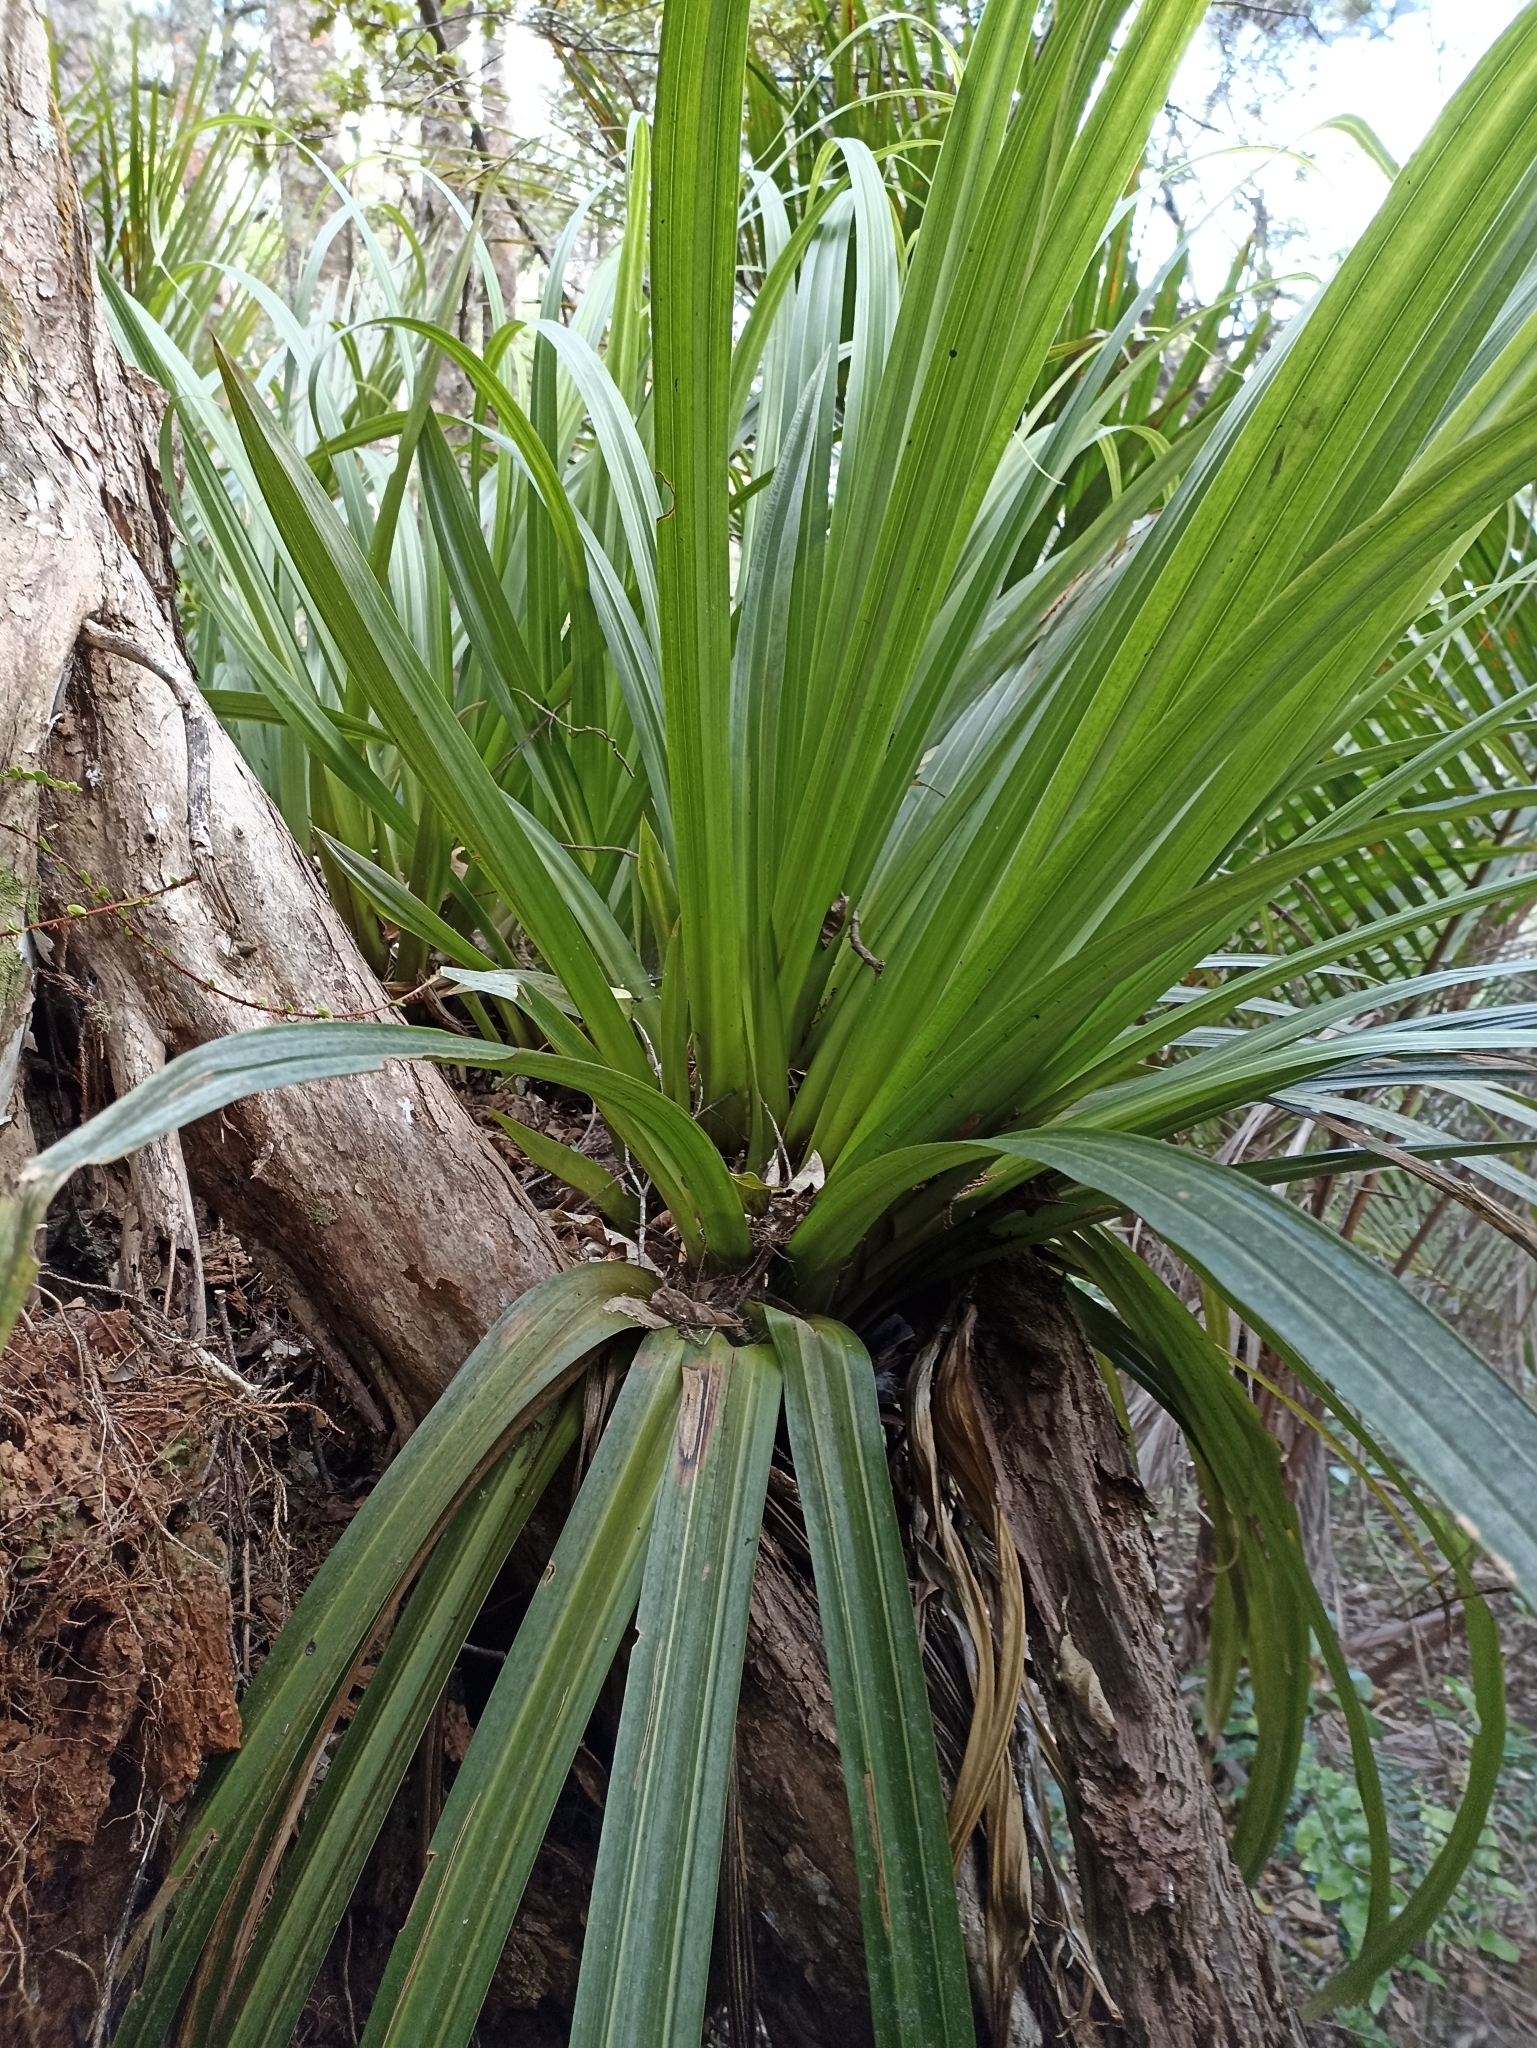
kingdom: Plantae
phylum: Tracheophyta
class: Liliopsida
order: Asparagales
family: Asteliaceae
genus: Astelia
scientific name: Astelia hastata
